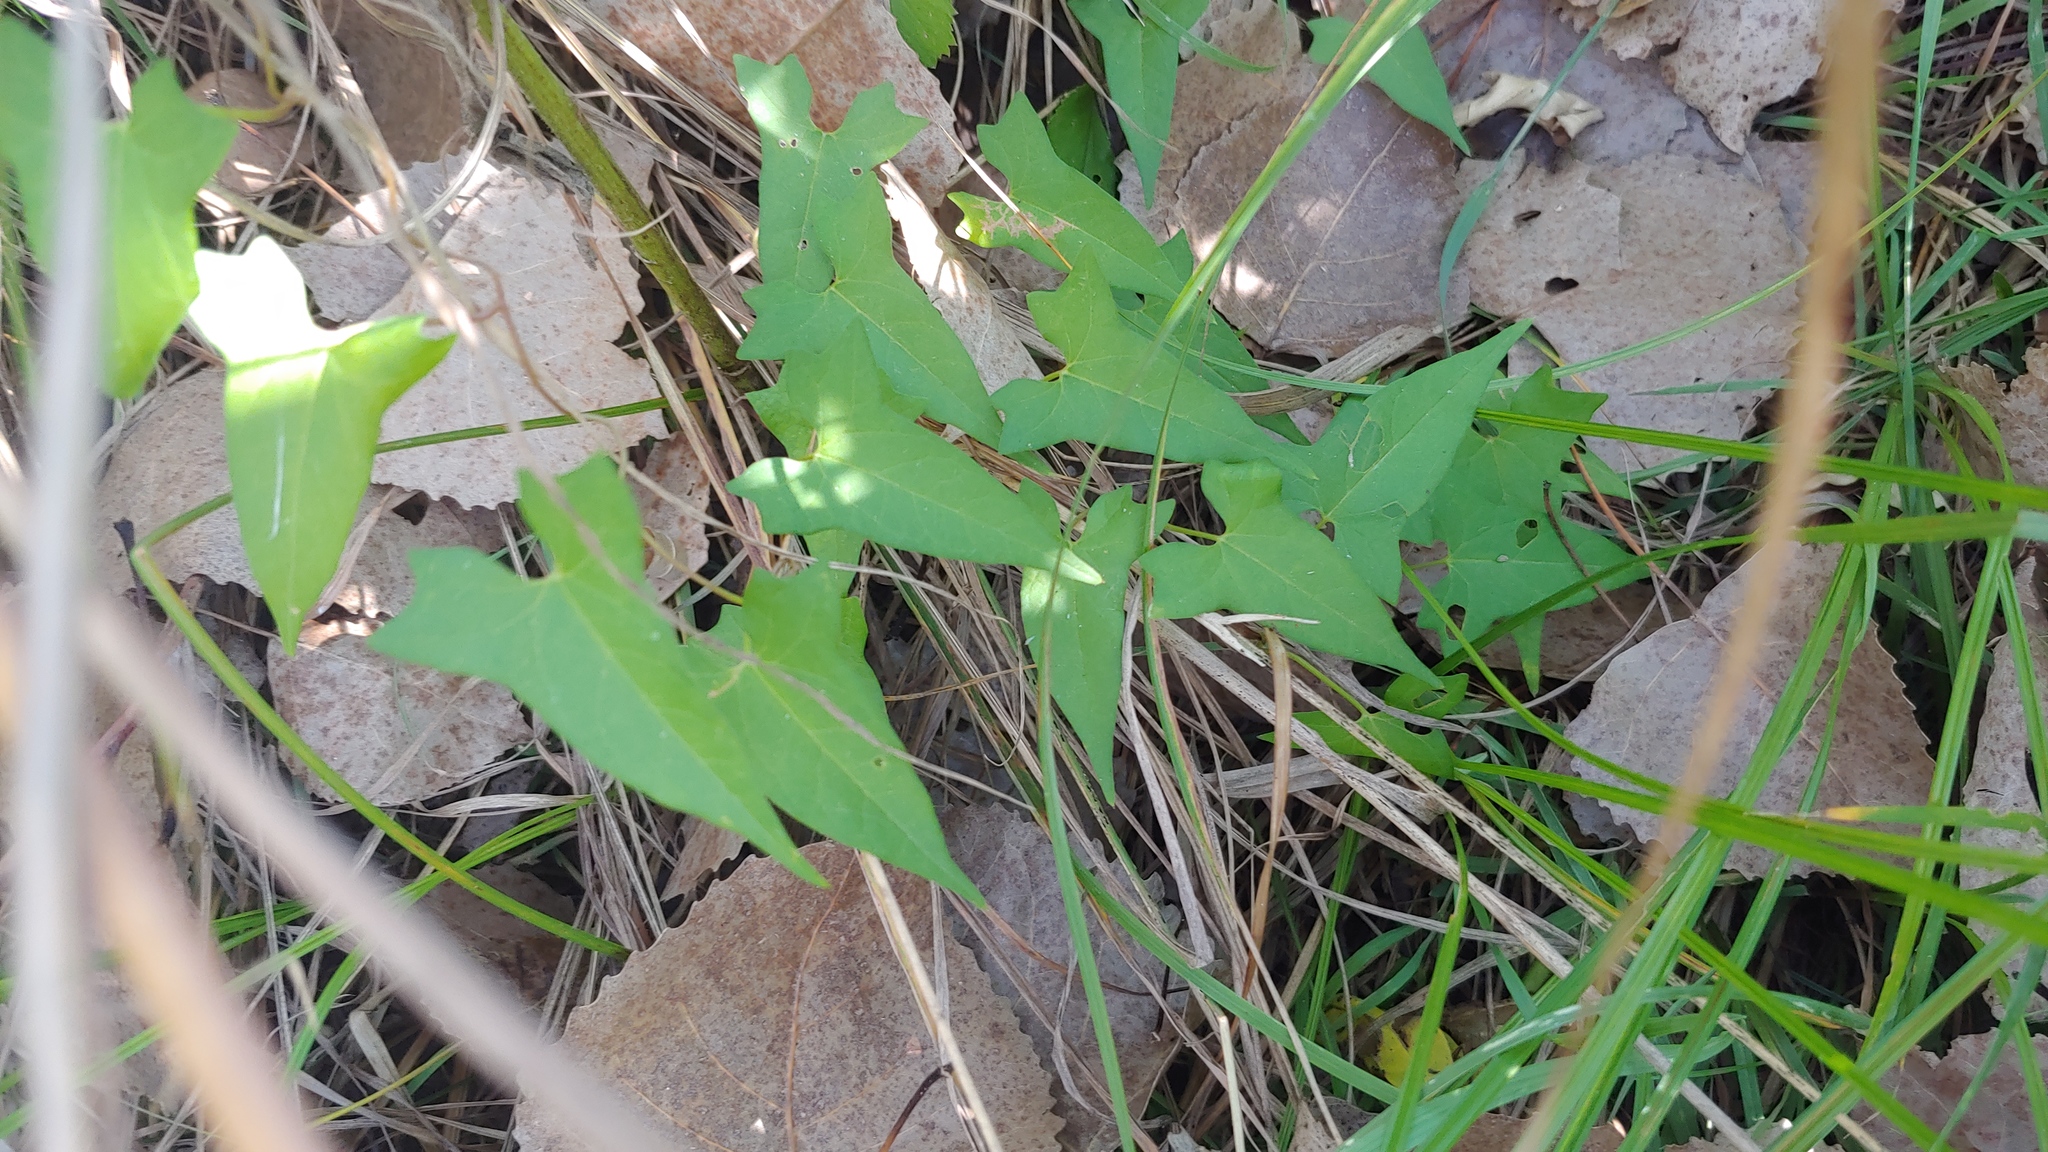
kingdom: Plantae
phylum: Tracheophyta
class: Magnoliopsida
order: Solanales
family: Convolvulaceae
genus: Calystegia
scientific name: Calystegia sepium
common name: Hedge bindweed
